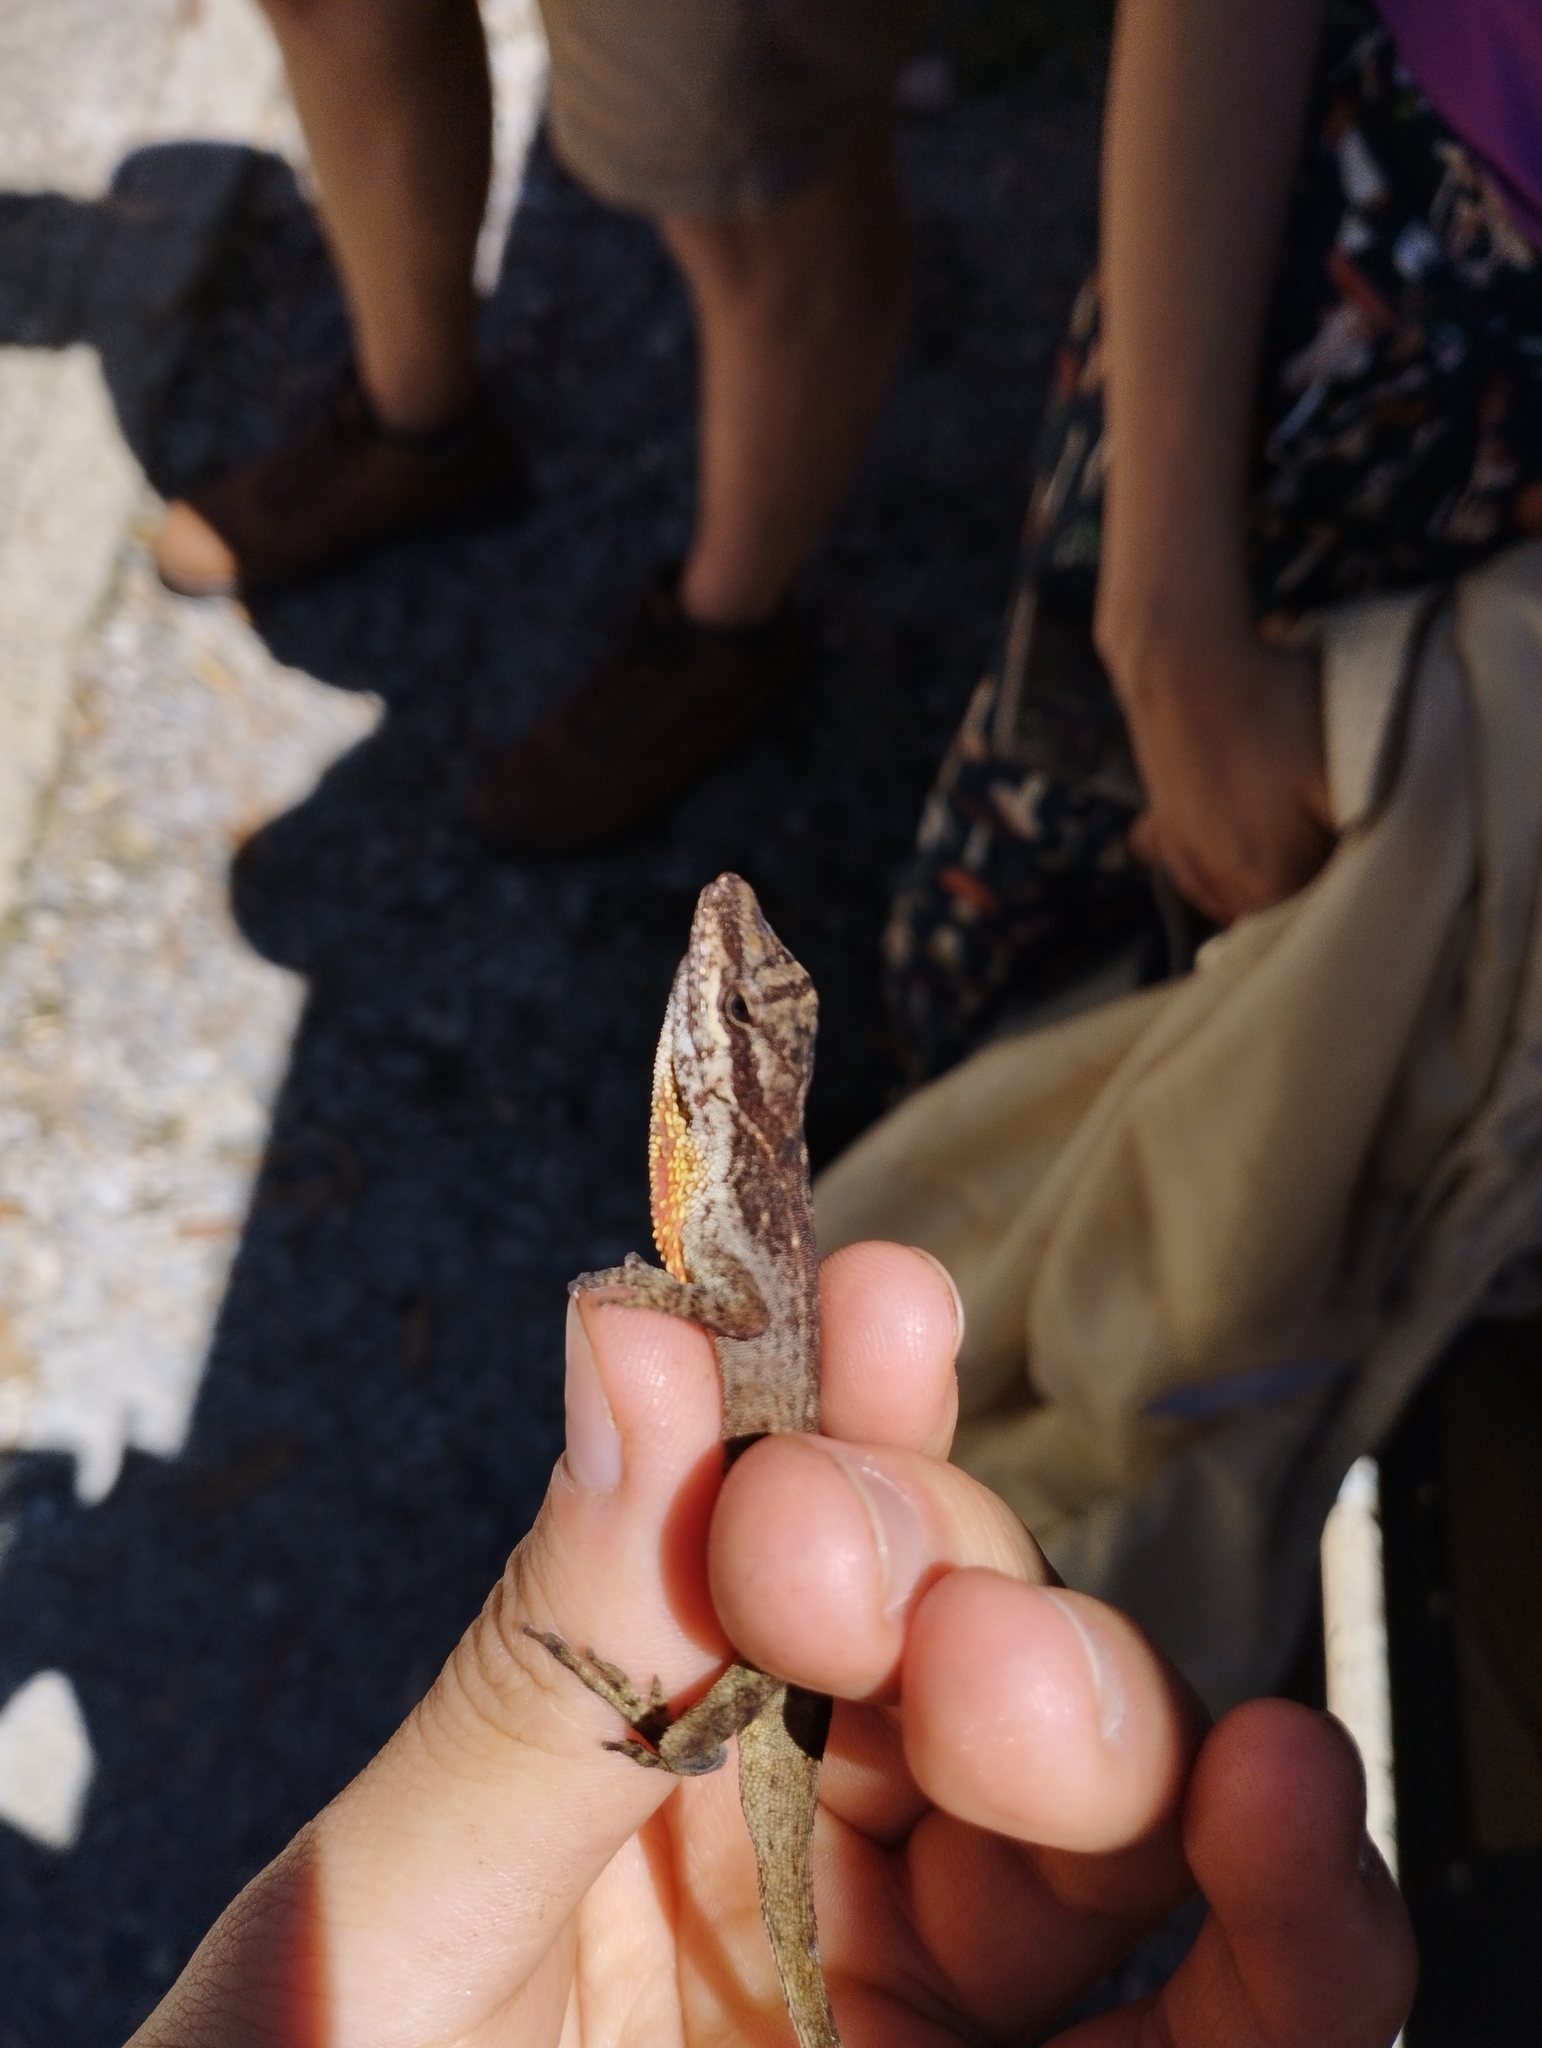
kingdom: Animalia
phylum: Chordata
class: Squamata
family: Dactyloidae
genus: Anolis
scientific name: Anolis mariarum
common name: Blemished anole
